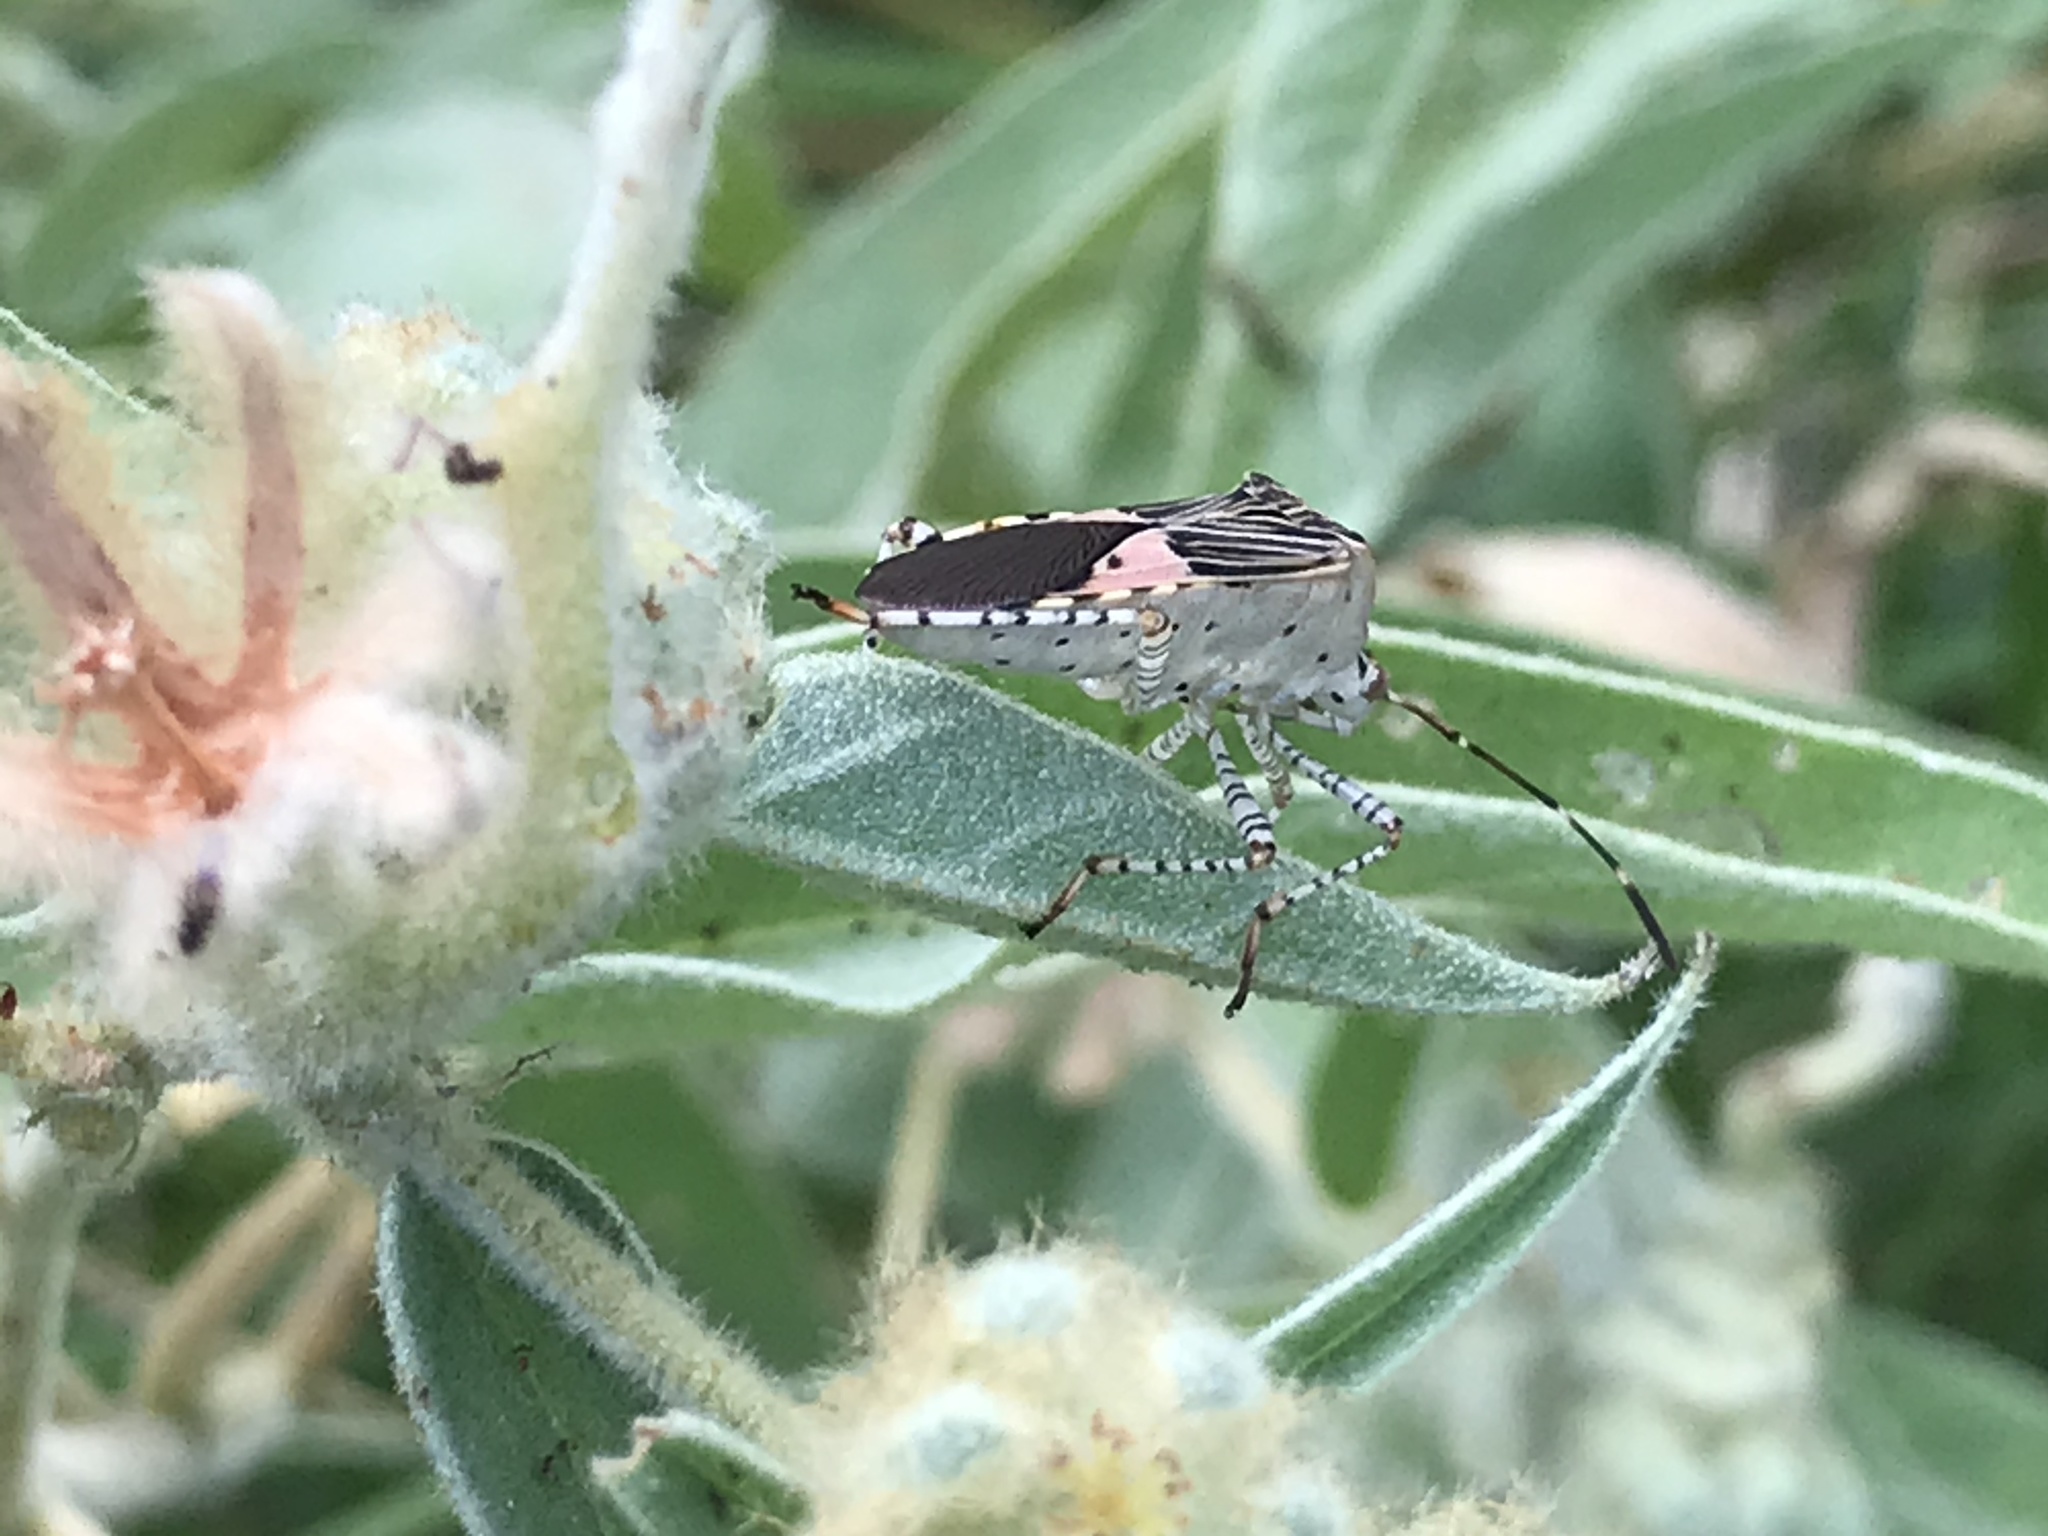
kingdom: Animalia
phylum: Arthropoda
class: Insecta
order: Hemiptera
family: Coreidae
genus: Hypselonotus
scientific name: Hypselonotus punctiventris
